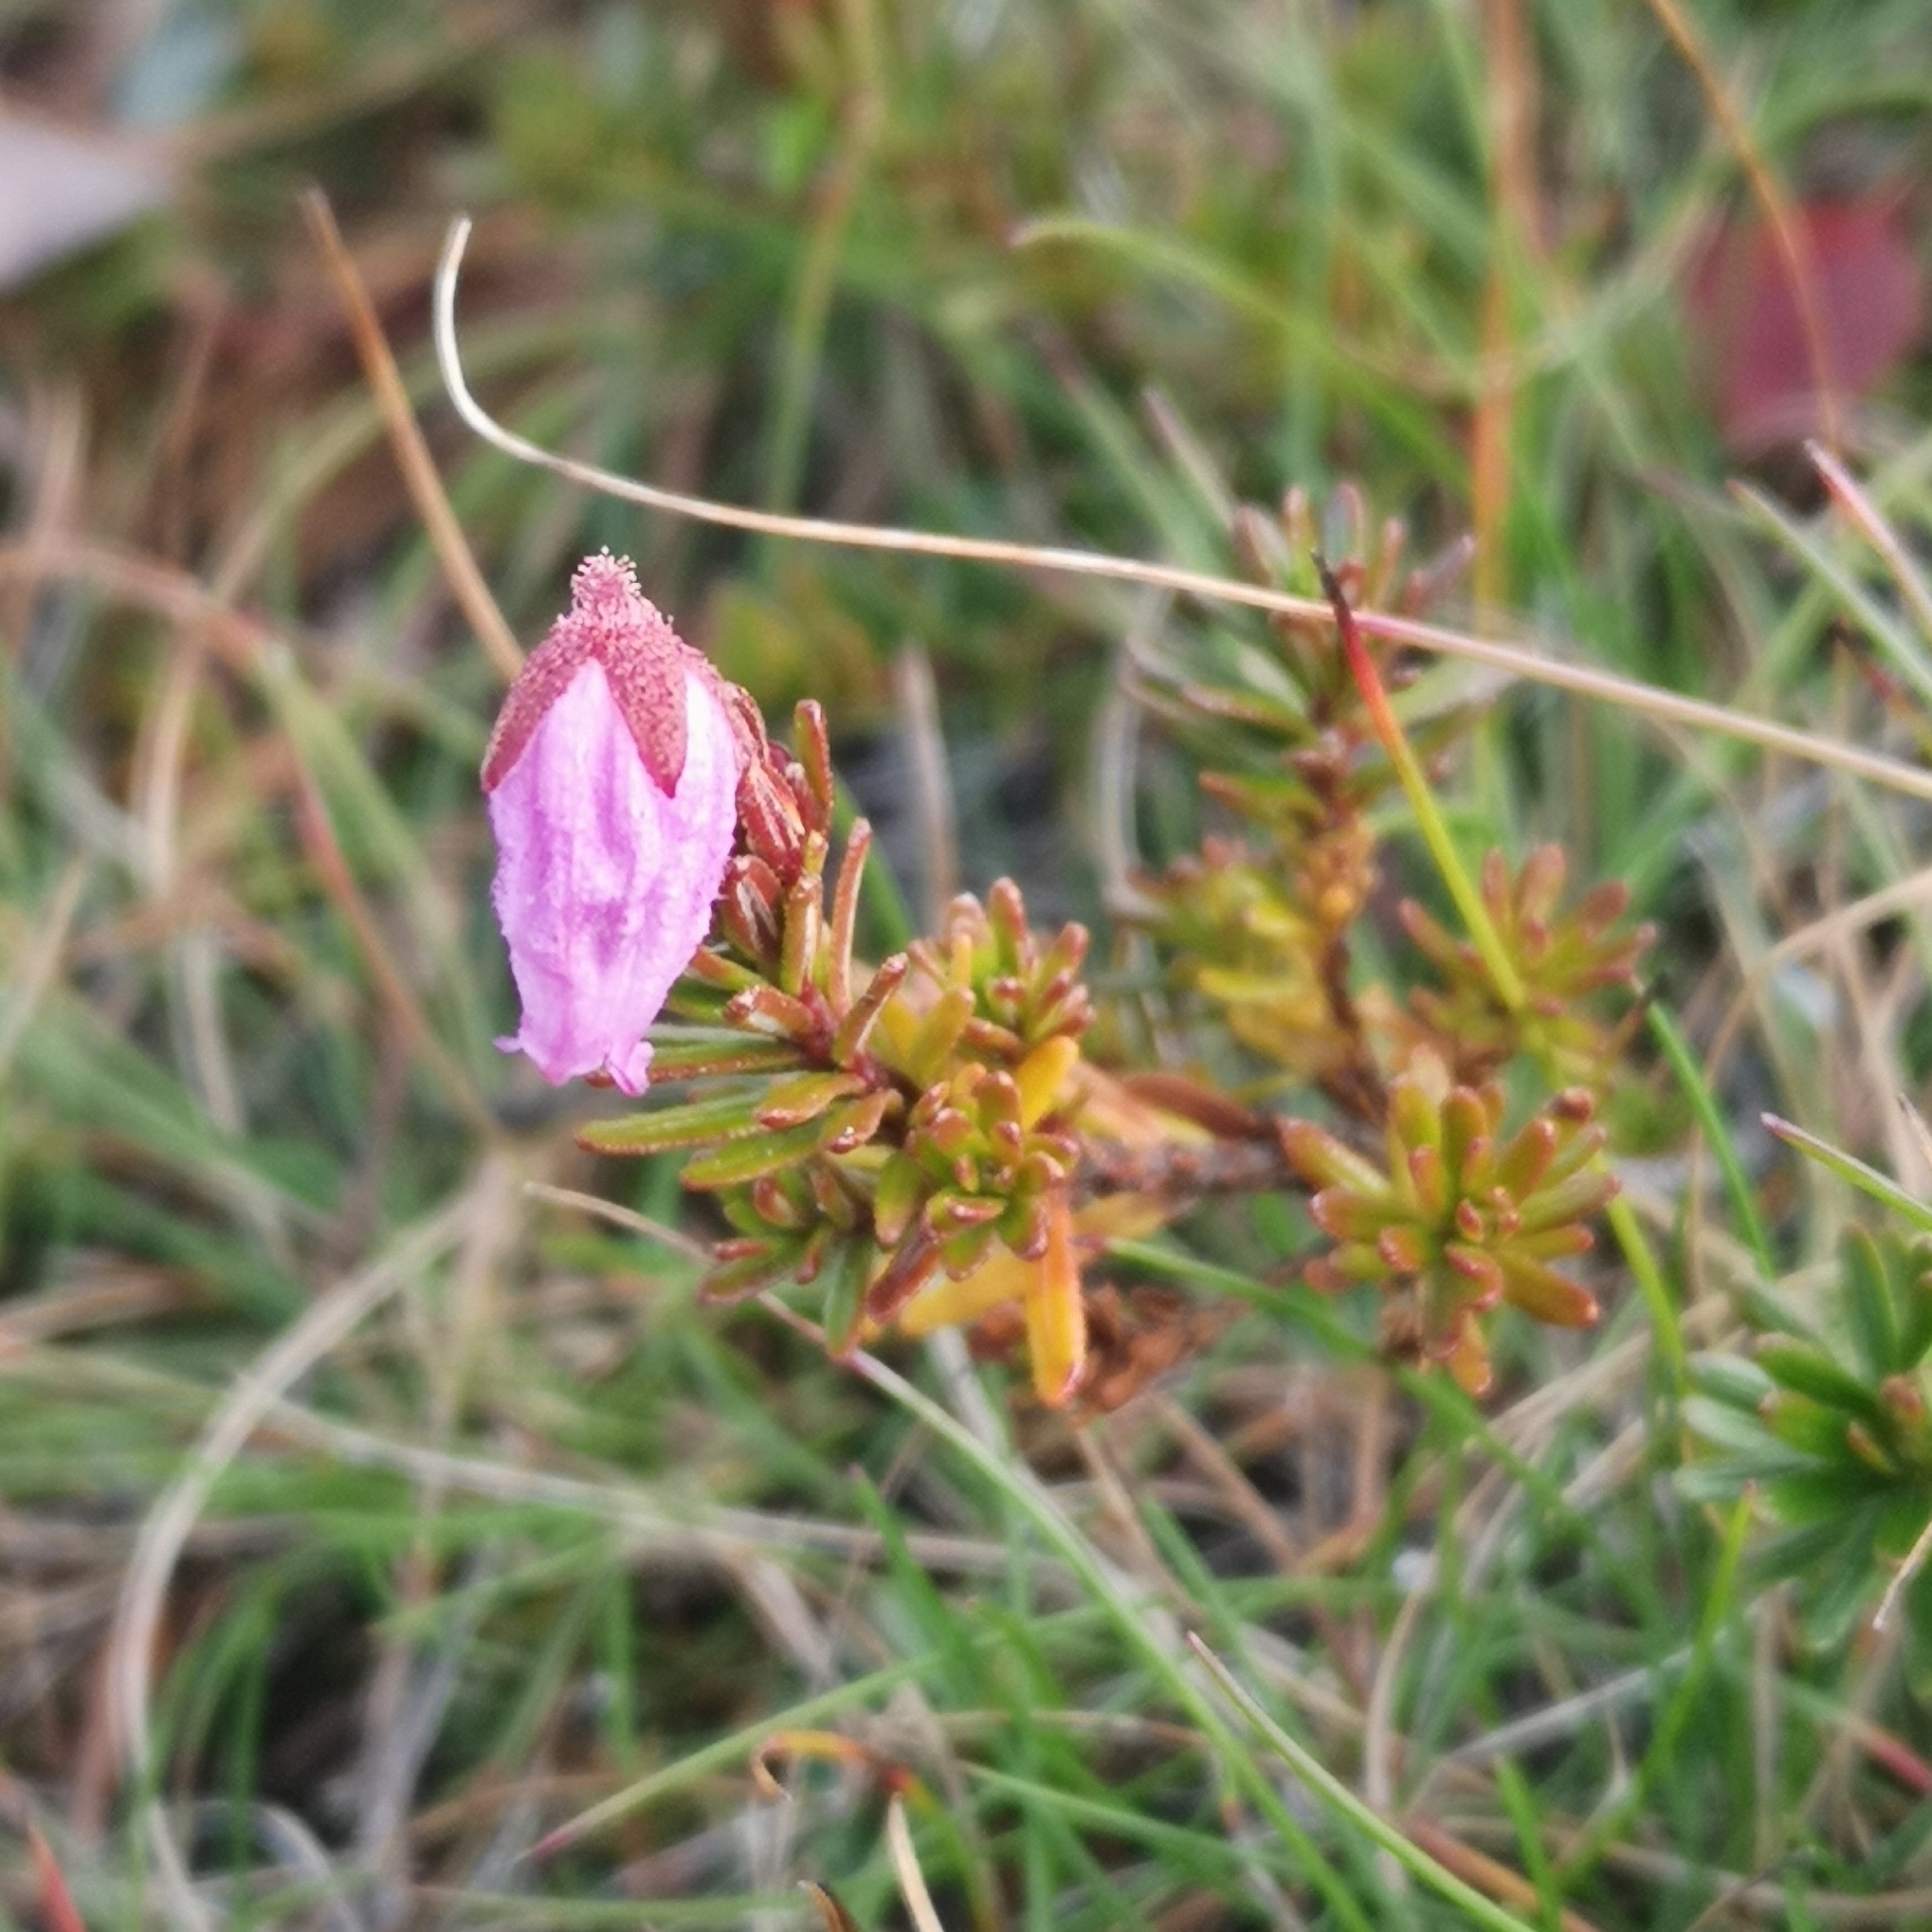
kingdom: Plantae
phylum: Tracheophyta
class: Magnoliopsida
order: Ericales
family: Ericaceae
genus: Phyllodoce
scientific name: Phyllodoce caerulea
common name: Blue heath
